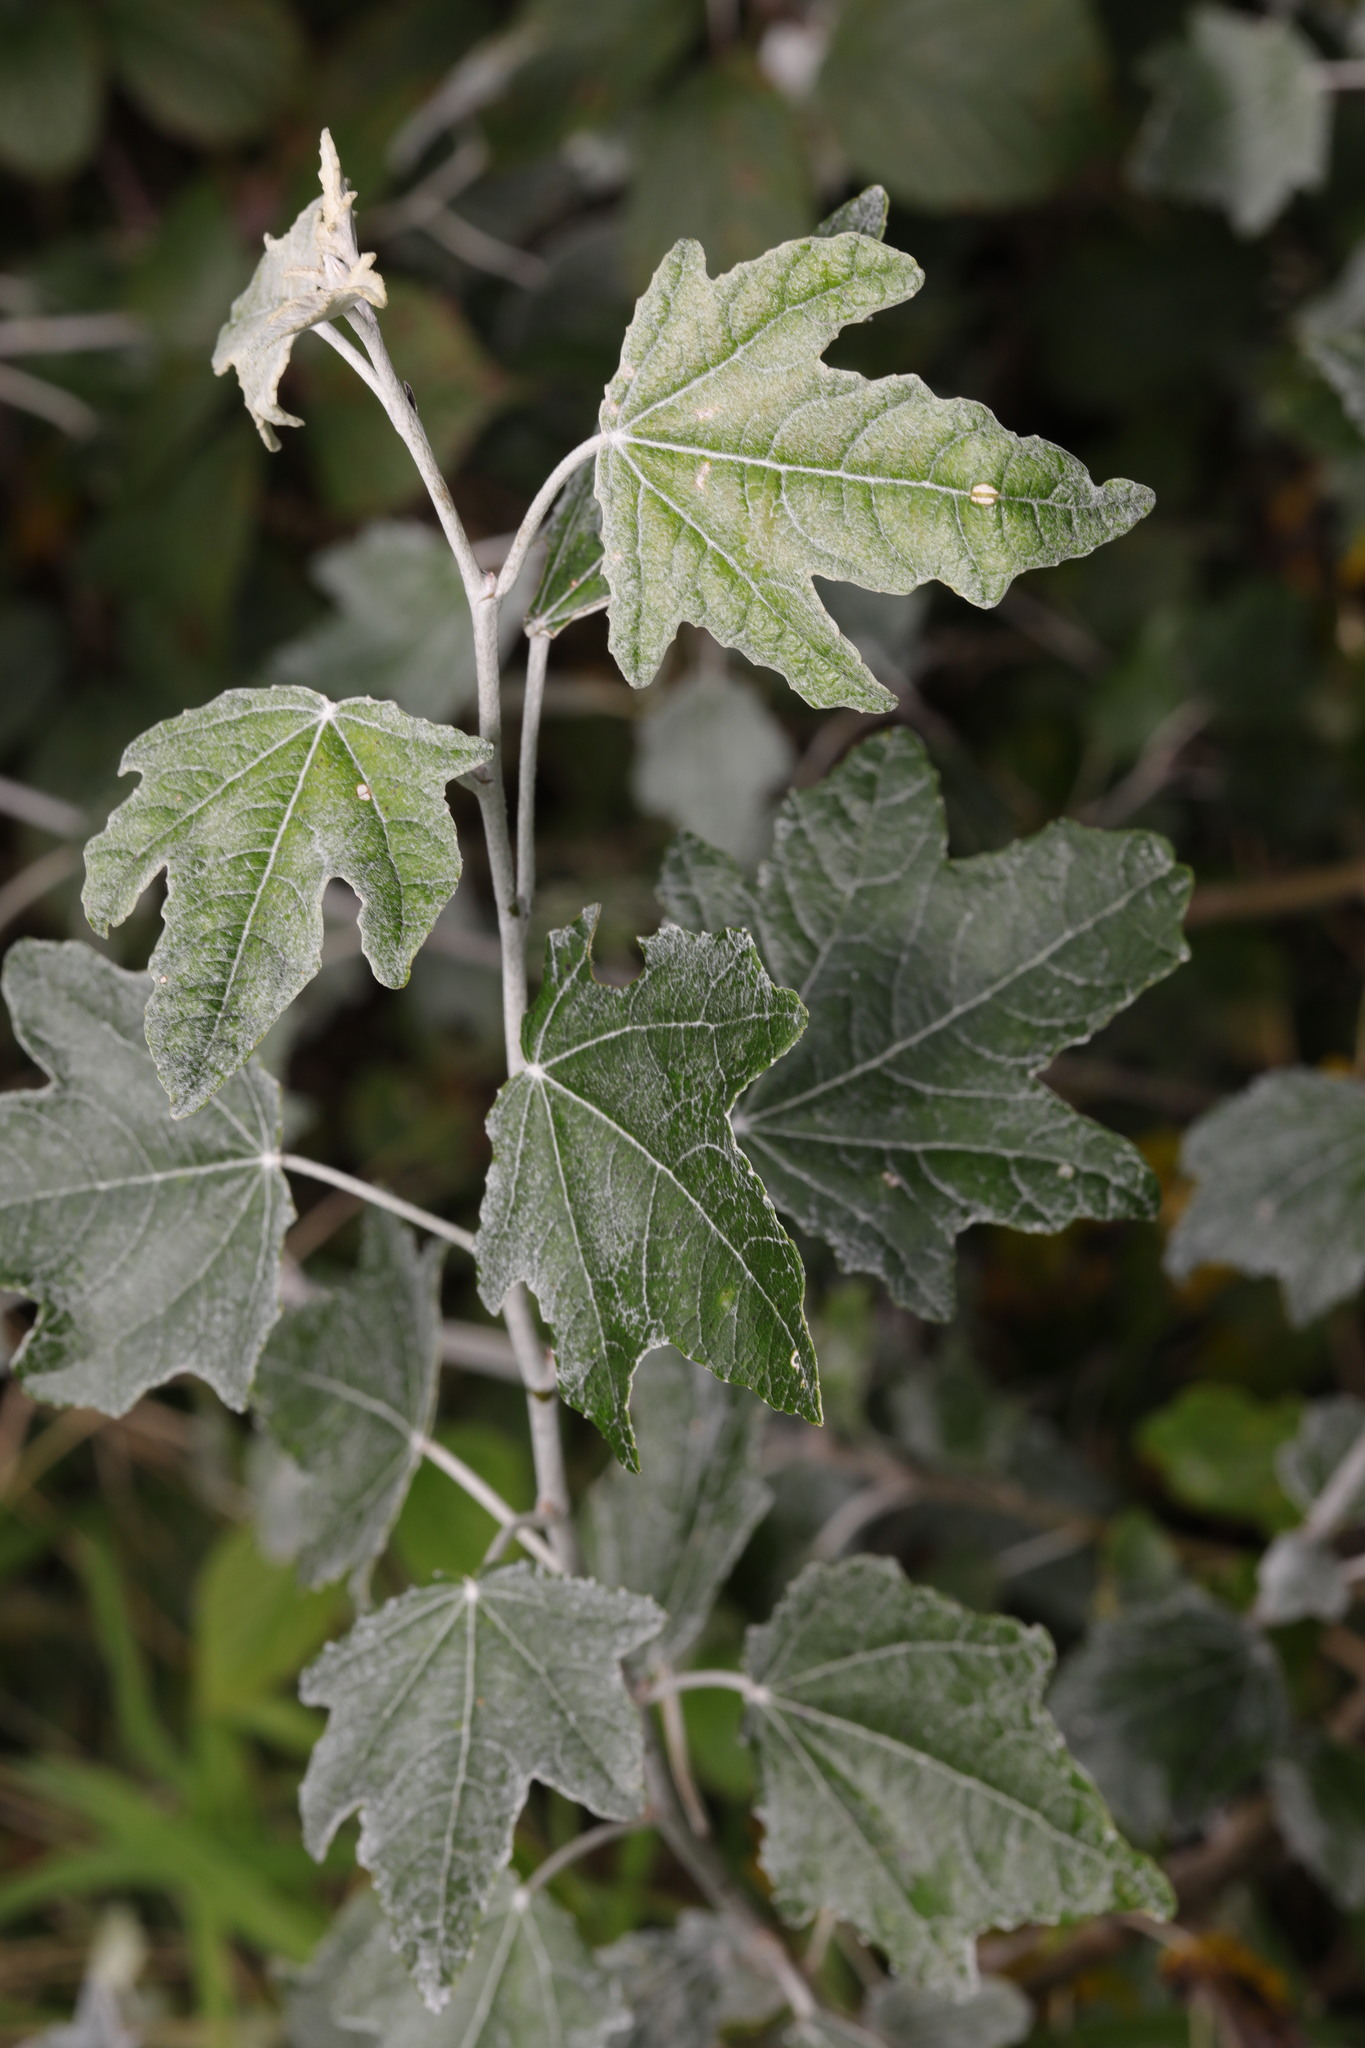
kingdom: Plantae
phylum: Tracheophyta
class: Magnoliopsida
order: Malpighiales
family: Salicaceae
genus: Populus
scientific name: Populus alba
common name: White poplar
